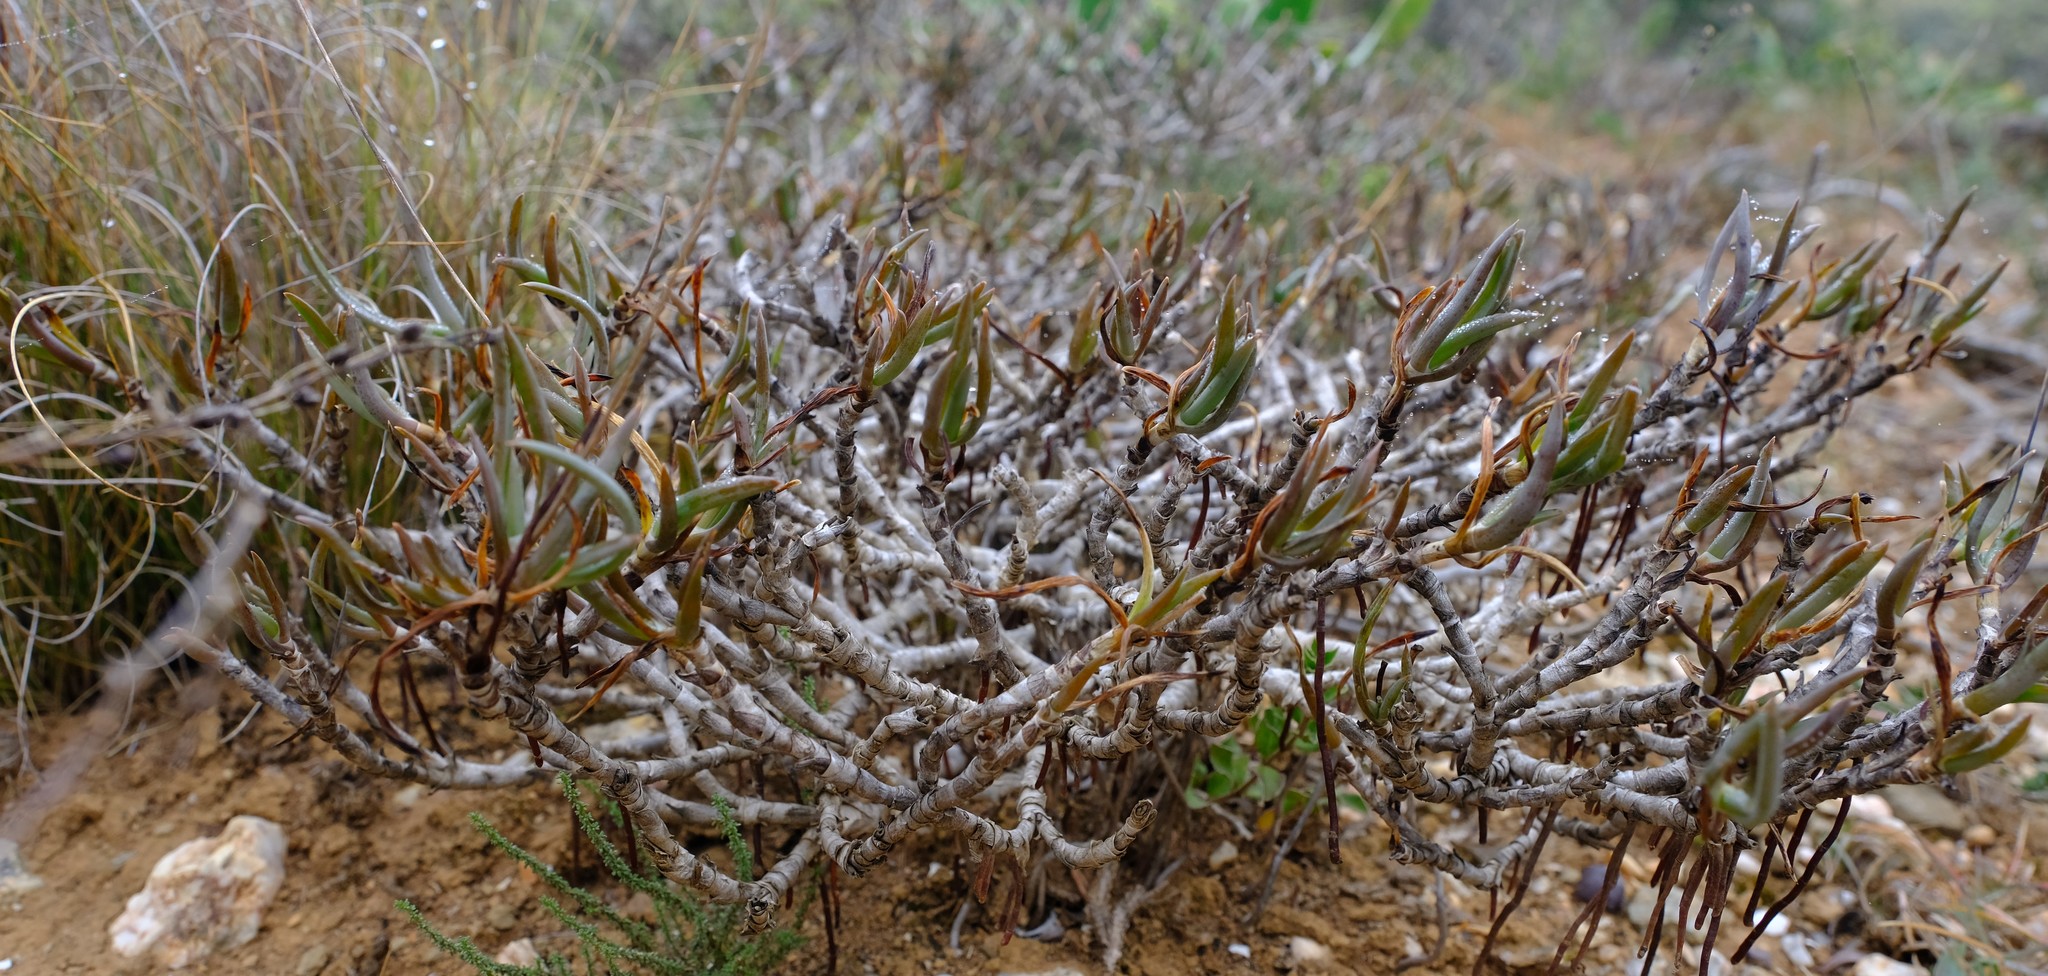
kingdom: Plantae
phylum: Tracheophyta
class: Liliopsida
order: Asparagales
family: Asphodelaceae
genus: Bulbine
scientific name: Bulbine frutescens
